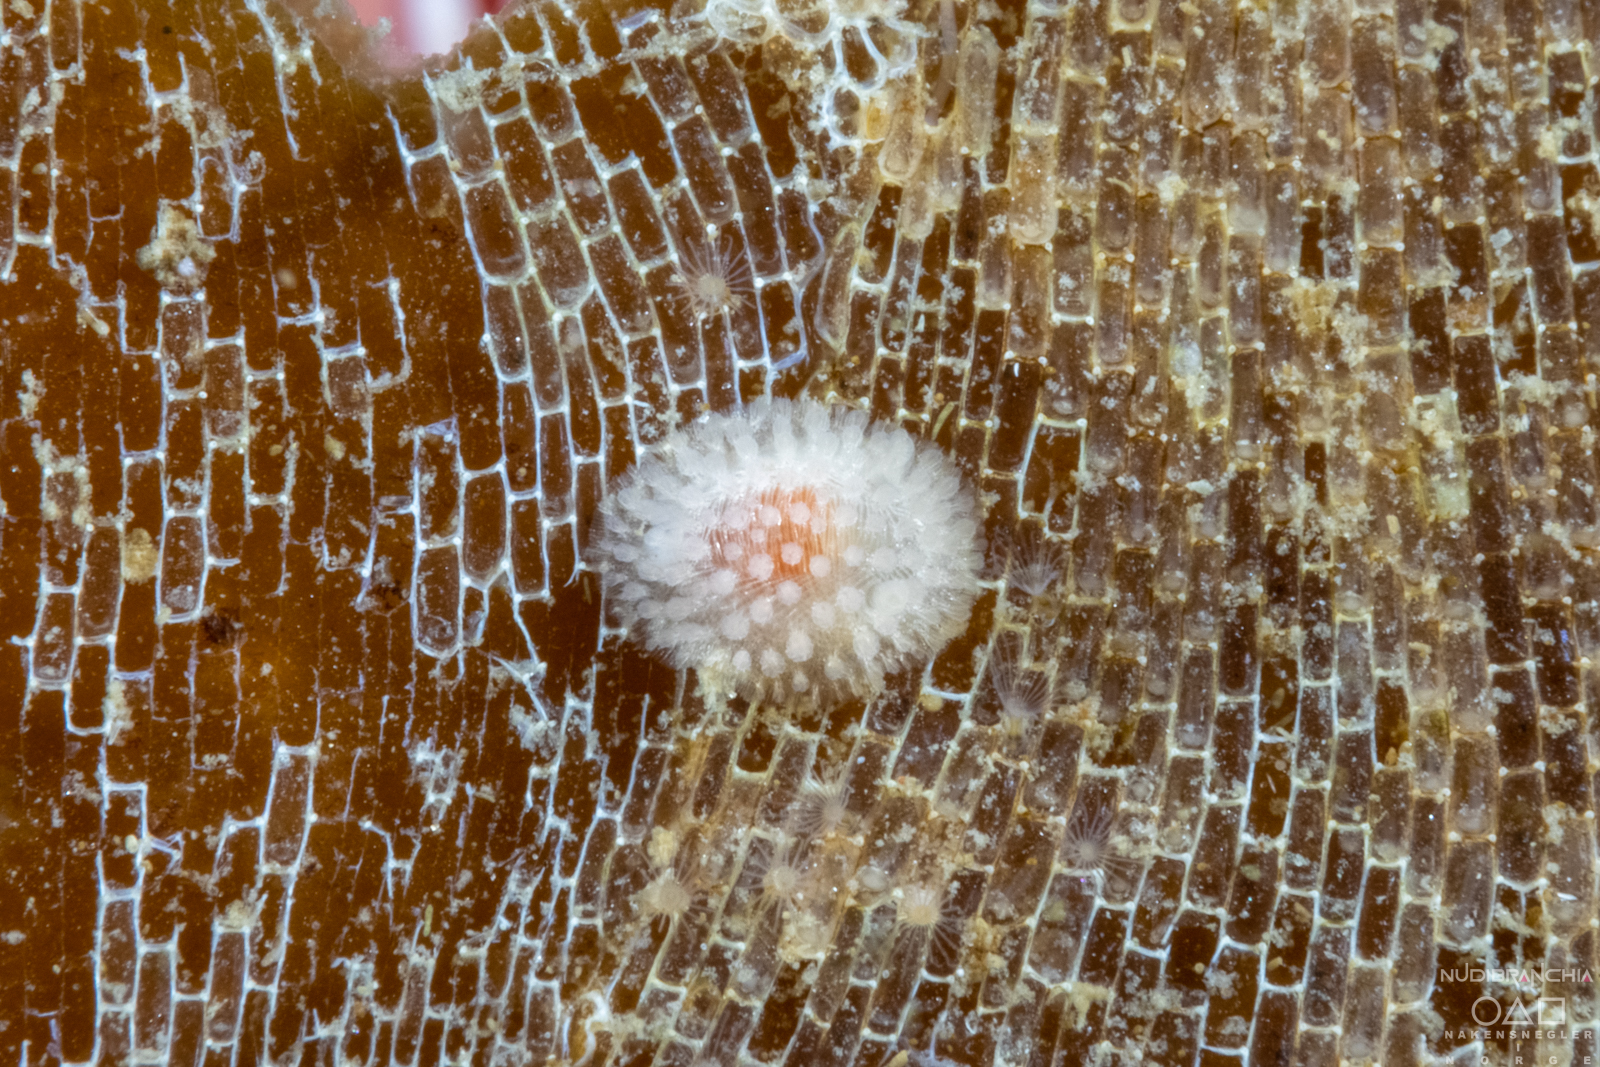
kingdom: Animalia
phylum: Mollusca
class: Gastropoda
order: Nudibranchia
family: Onchidorididae
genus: Onchidoris
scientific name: Onchidoris muricata
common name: Rough doris
